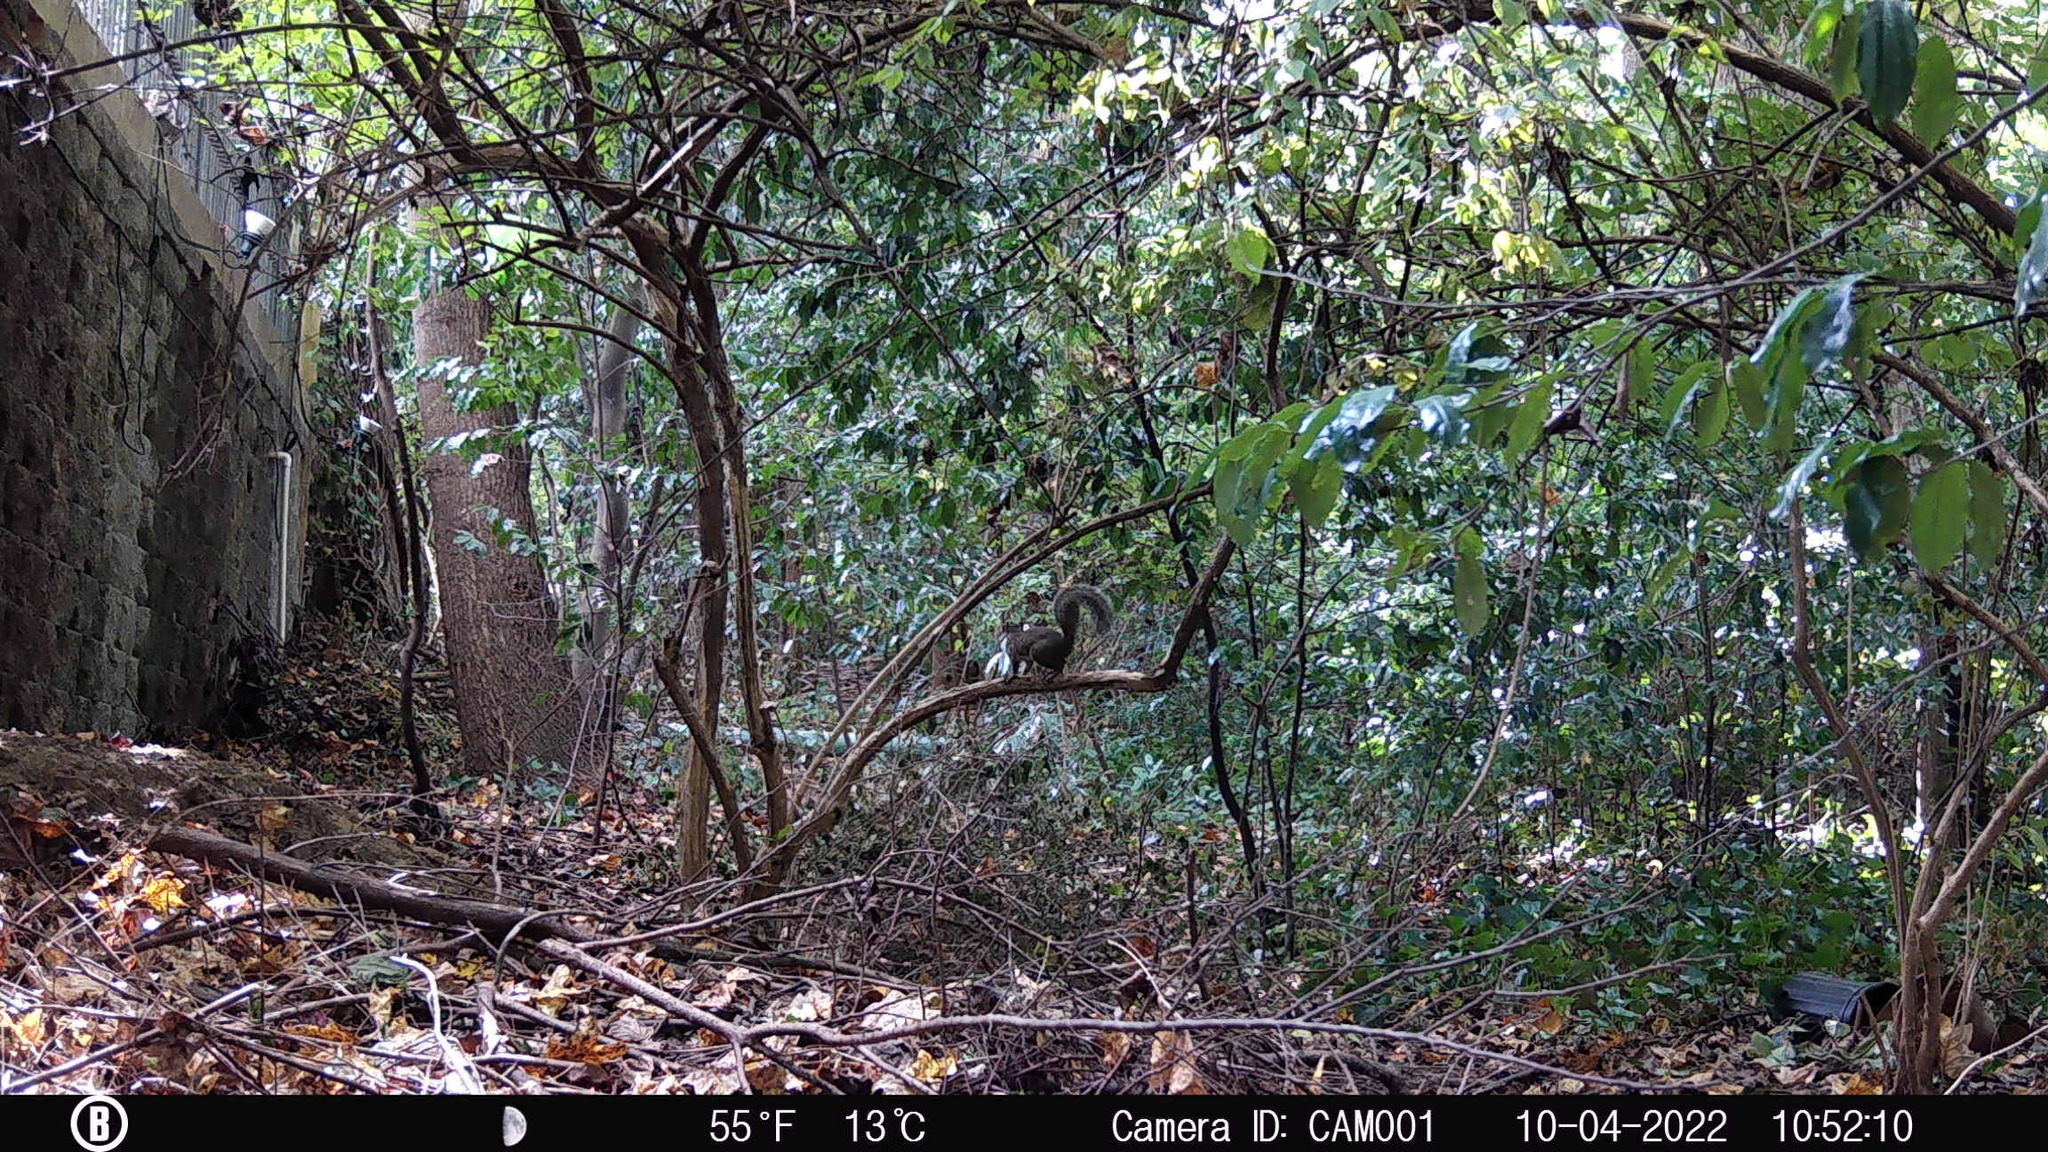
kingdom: Animalia
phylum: Chordata
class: Mammalia
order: Rodentia
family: Sciuridae
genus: Sciurus
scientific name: Sciurus carolinensis
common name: Eastern gray squirrel
